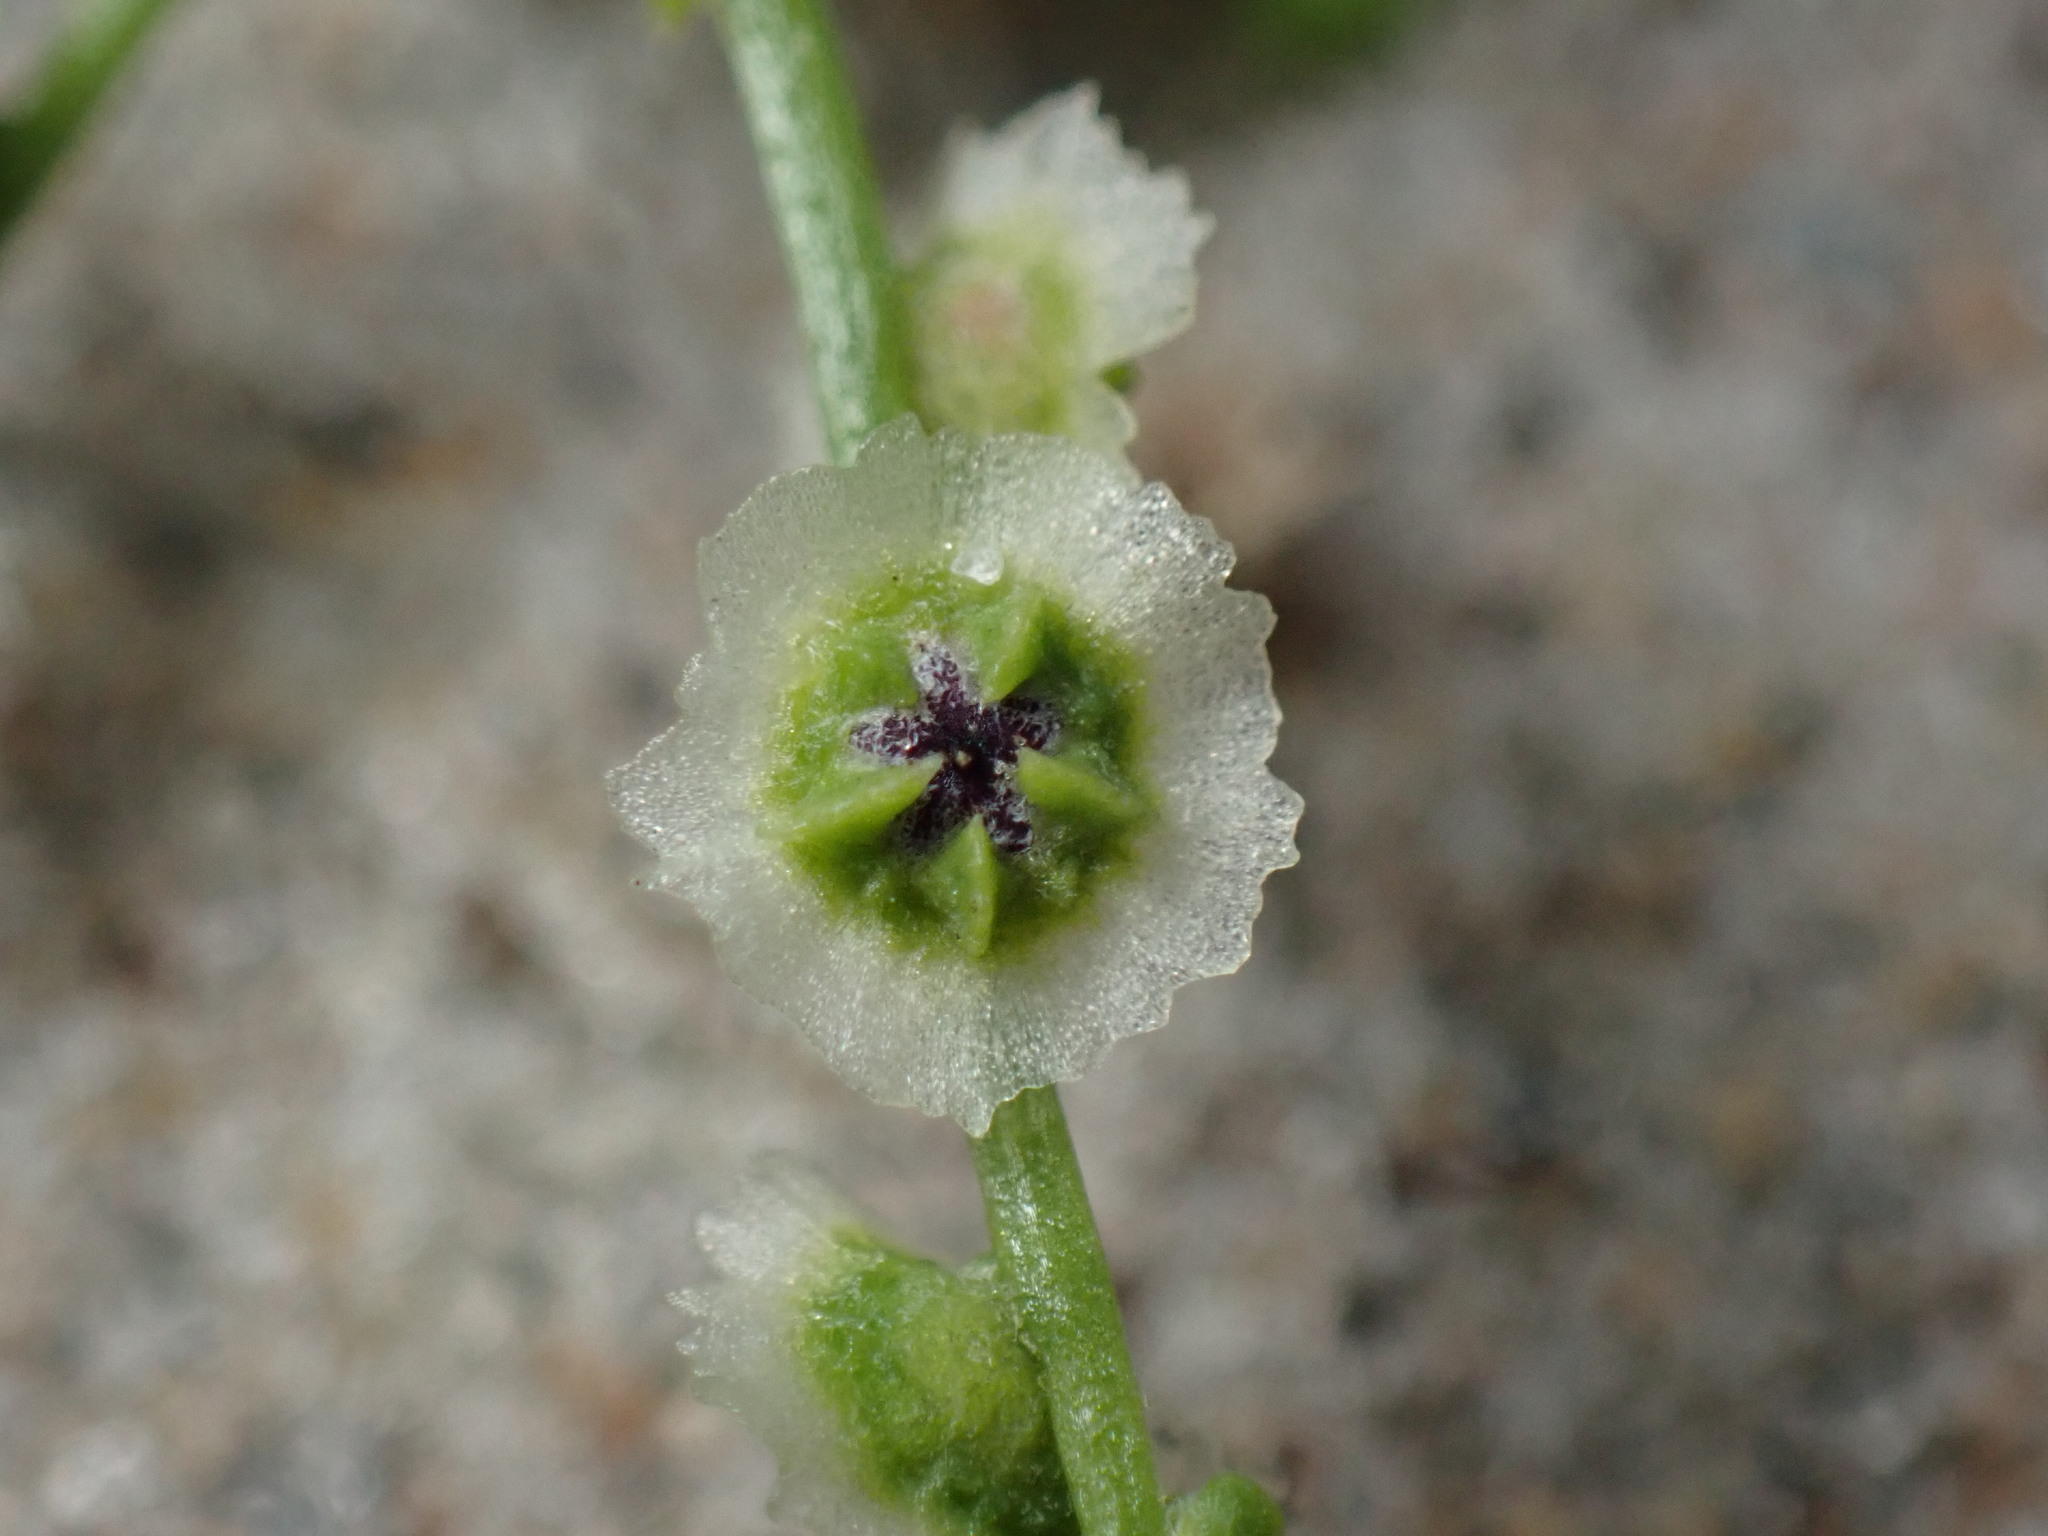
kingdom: Plantae
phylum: Tracheophyta
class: Magnoliopsida
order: Caryophyllales
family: Amaranthaceae
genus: Dysphania
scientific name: Dysphania atriplicifolia
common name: Plains tumbleweed
